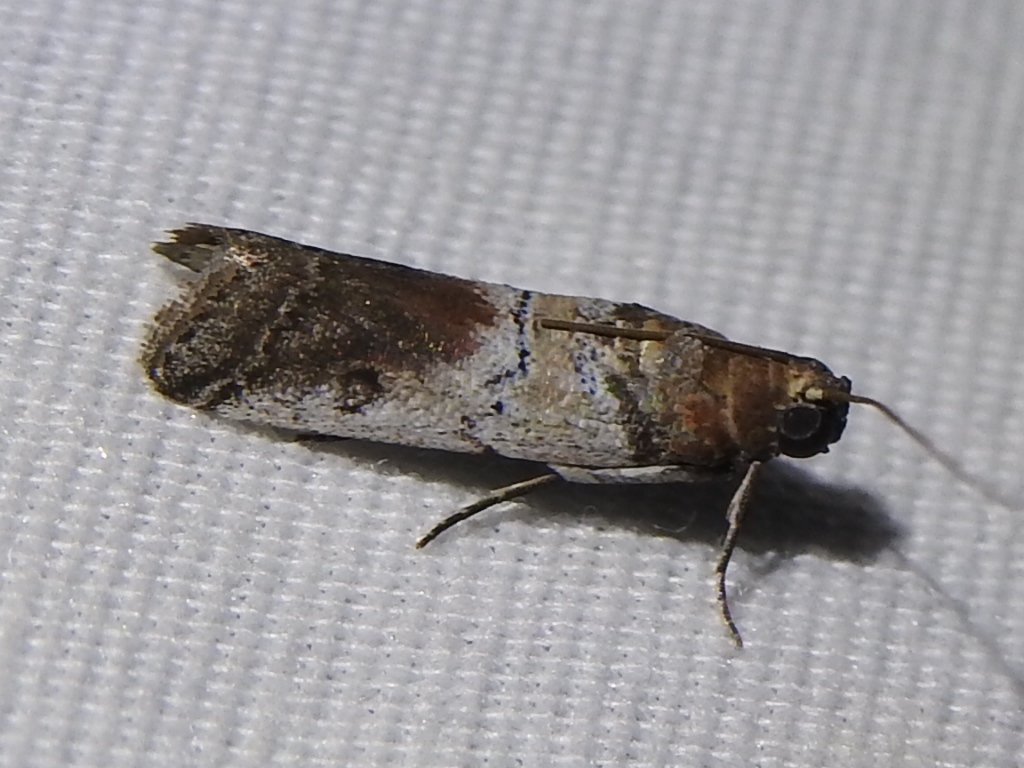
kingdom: Animalia
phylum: Arthropoda
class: Insecta
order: Lepidoptera
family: Pyralidae
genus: Chararica
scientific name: Chararica hystriculella
